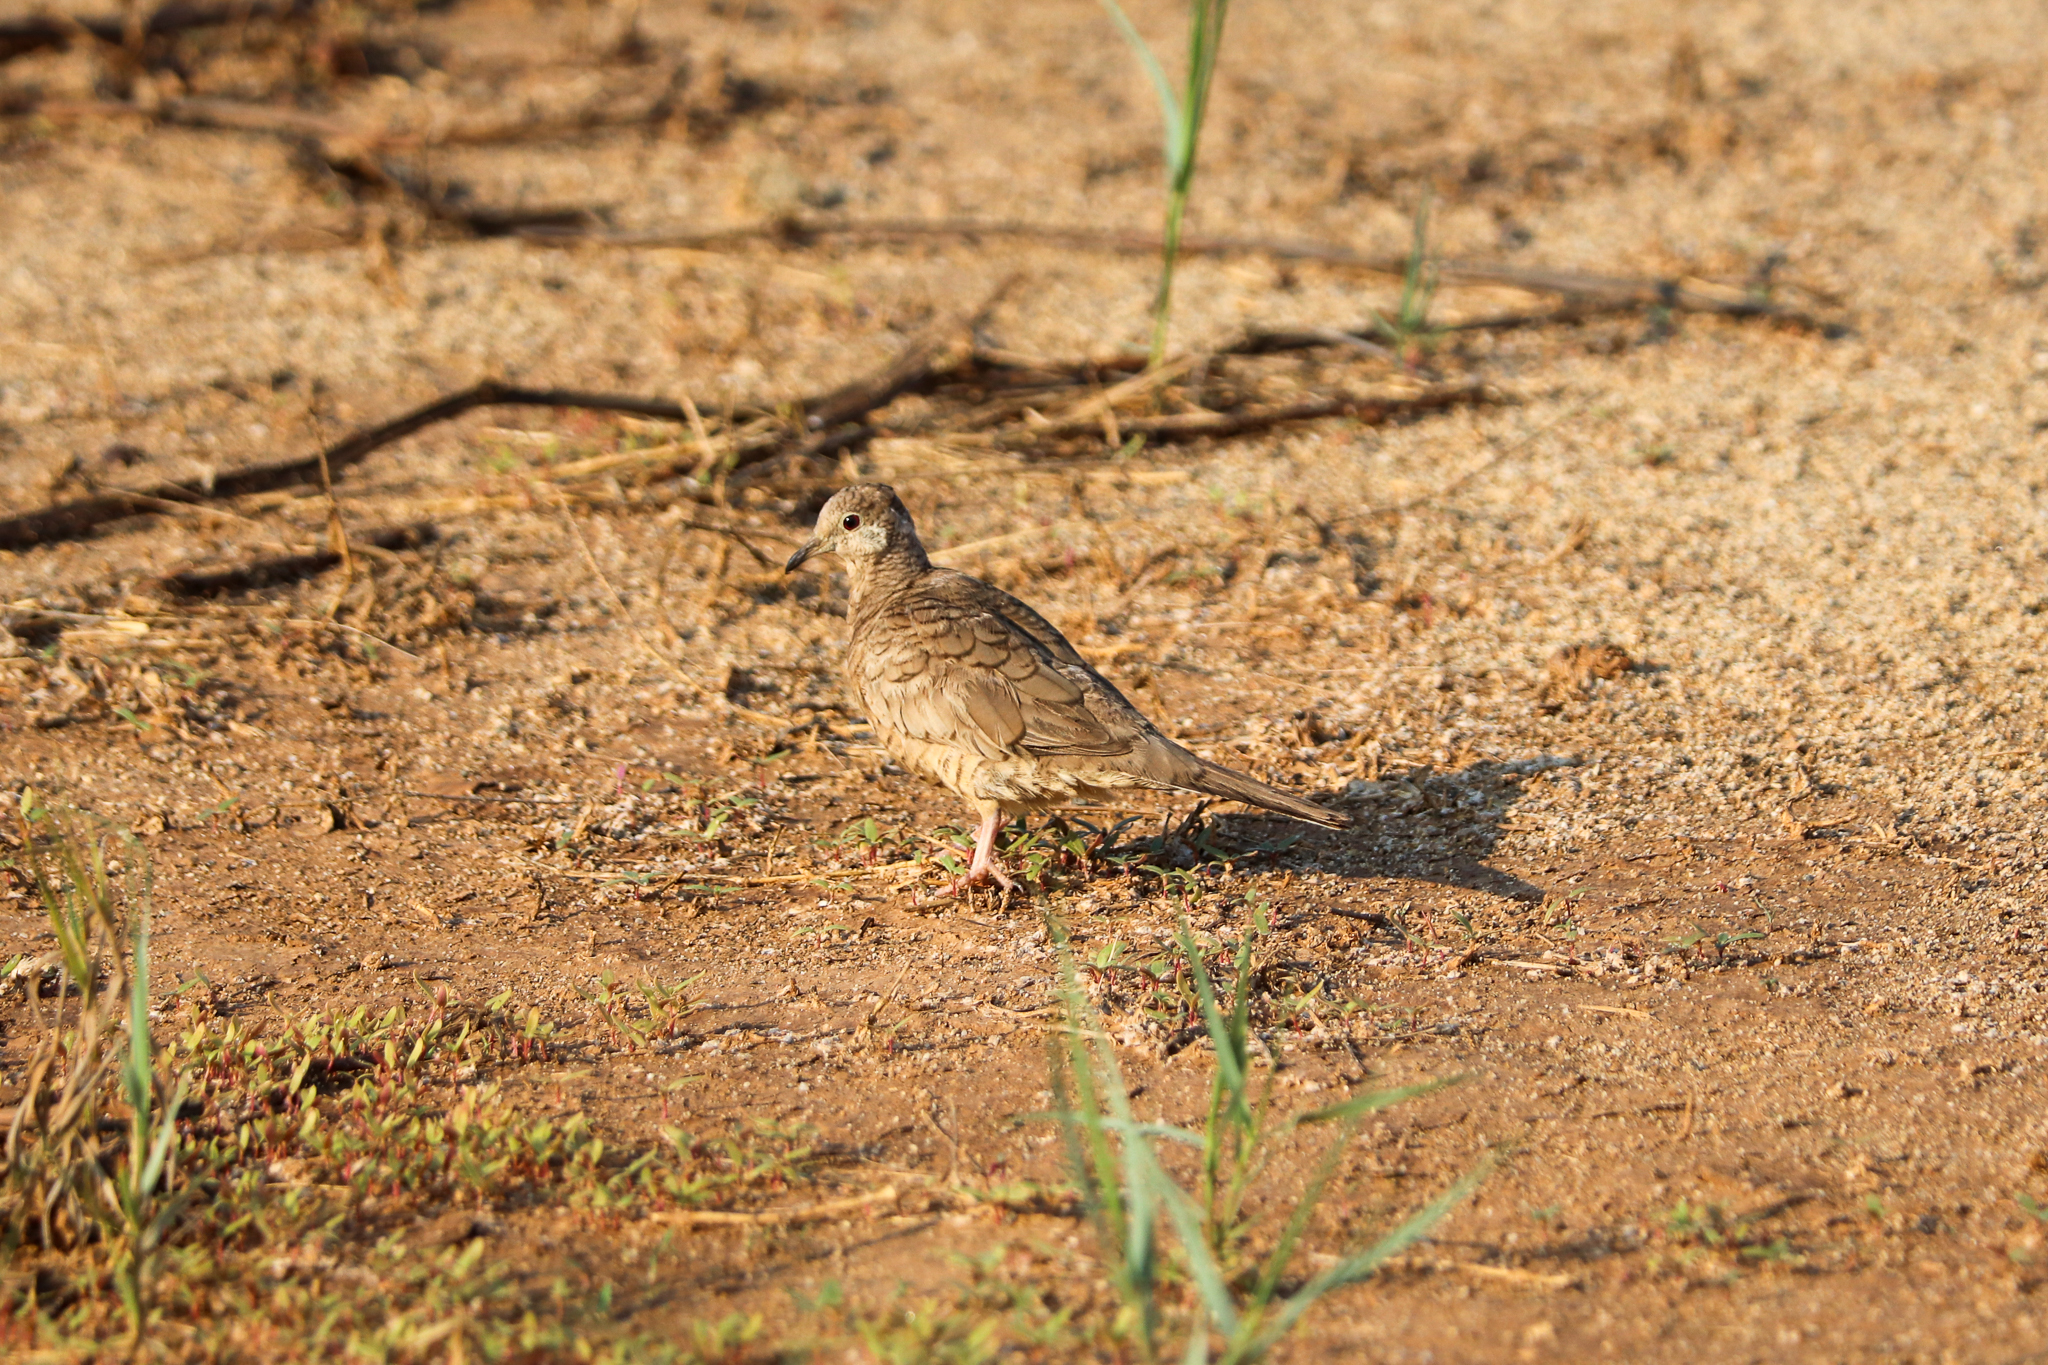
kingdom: Animalia
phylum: Chordata
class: Aves
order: Columbiformes
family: Columbidae
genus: Columbina
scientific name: Columbina inca
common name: Inca dove
